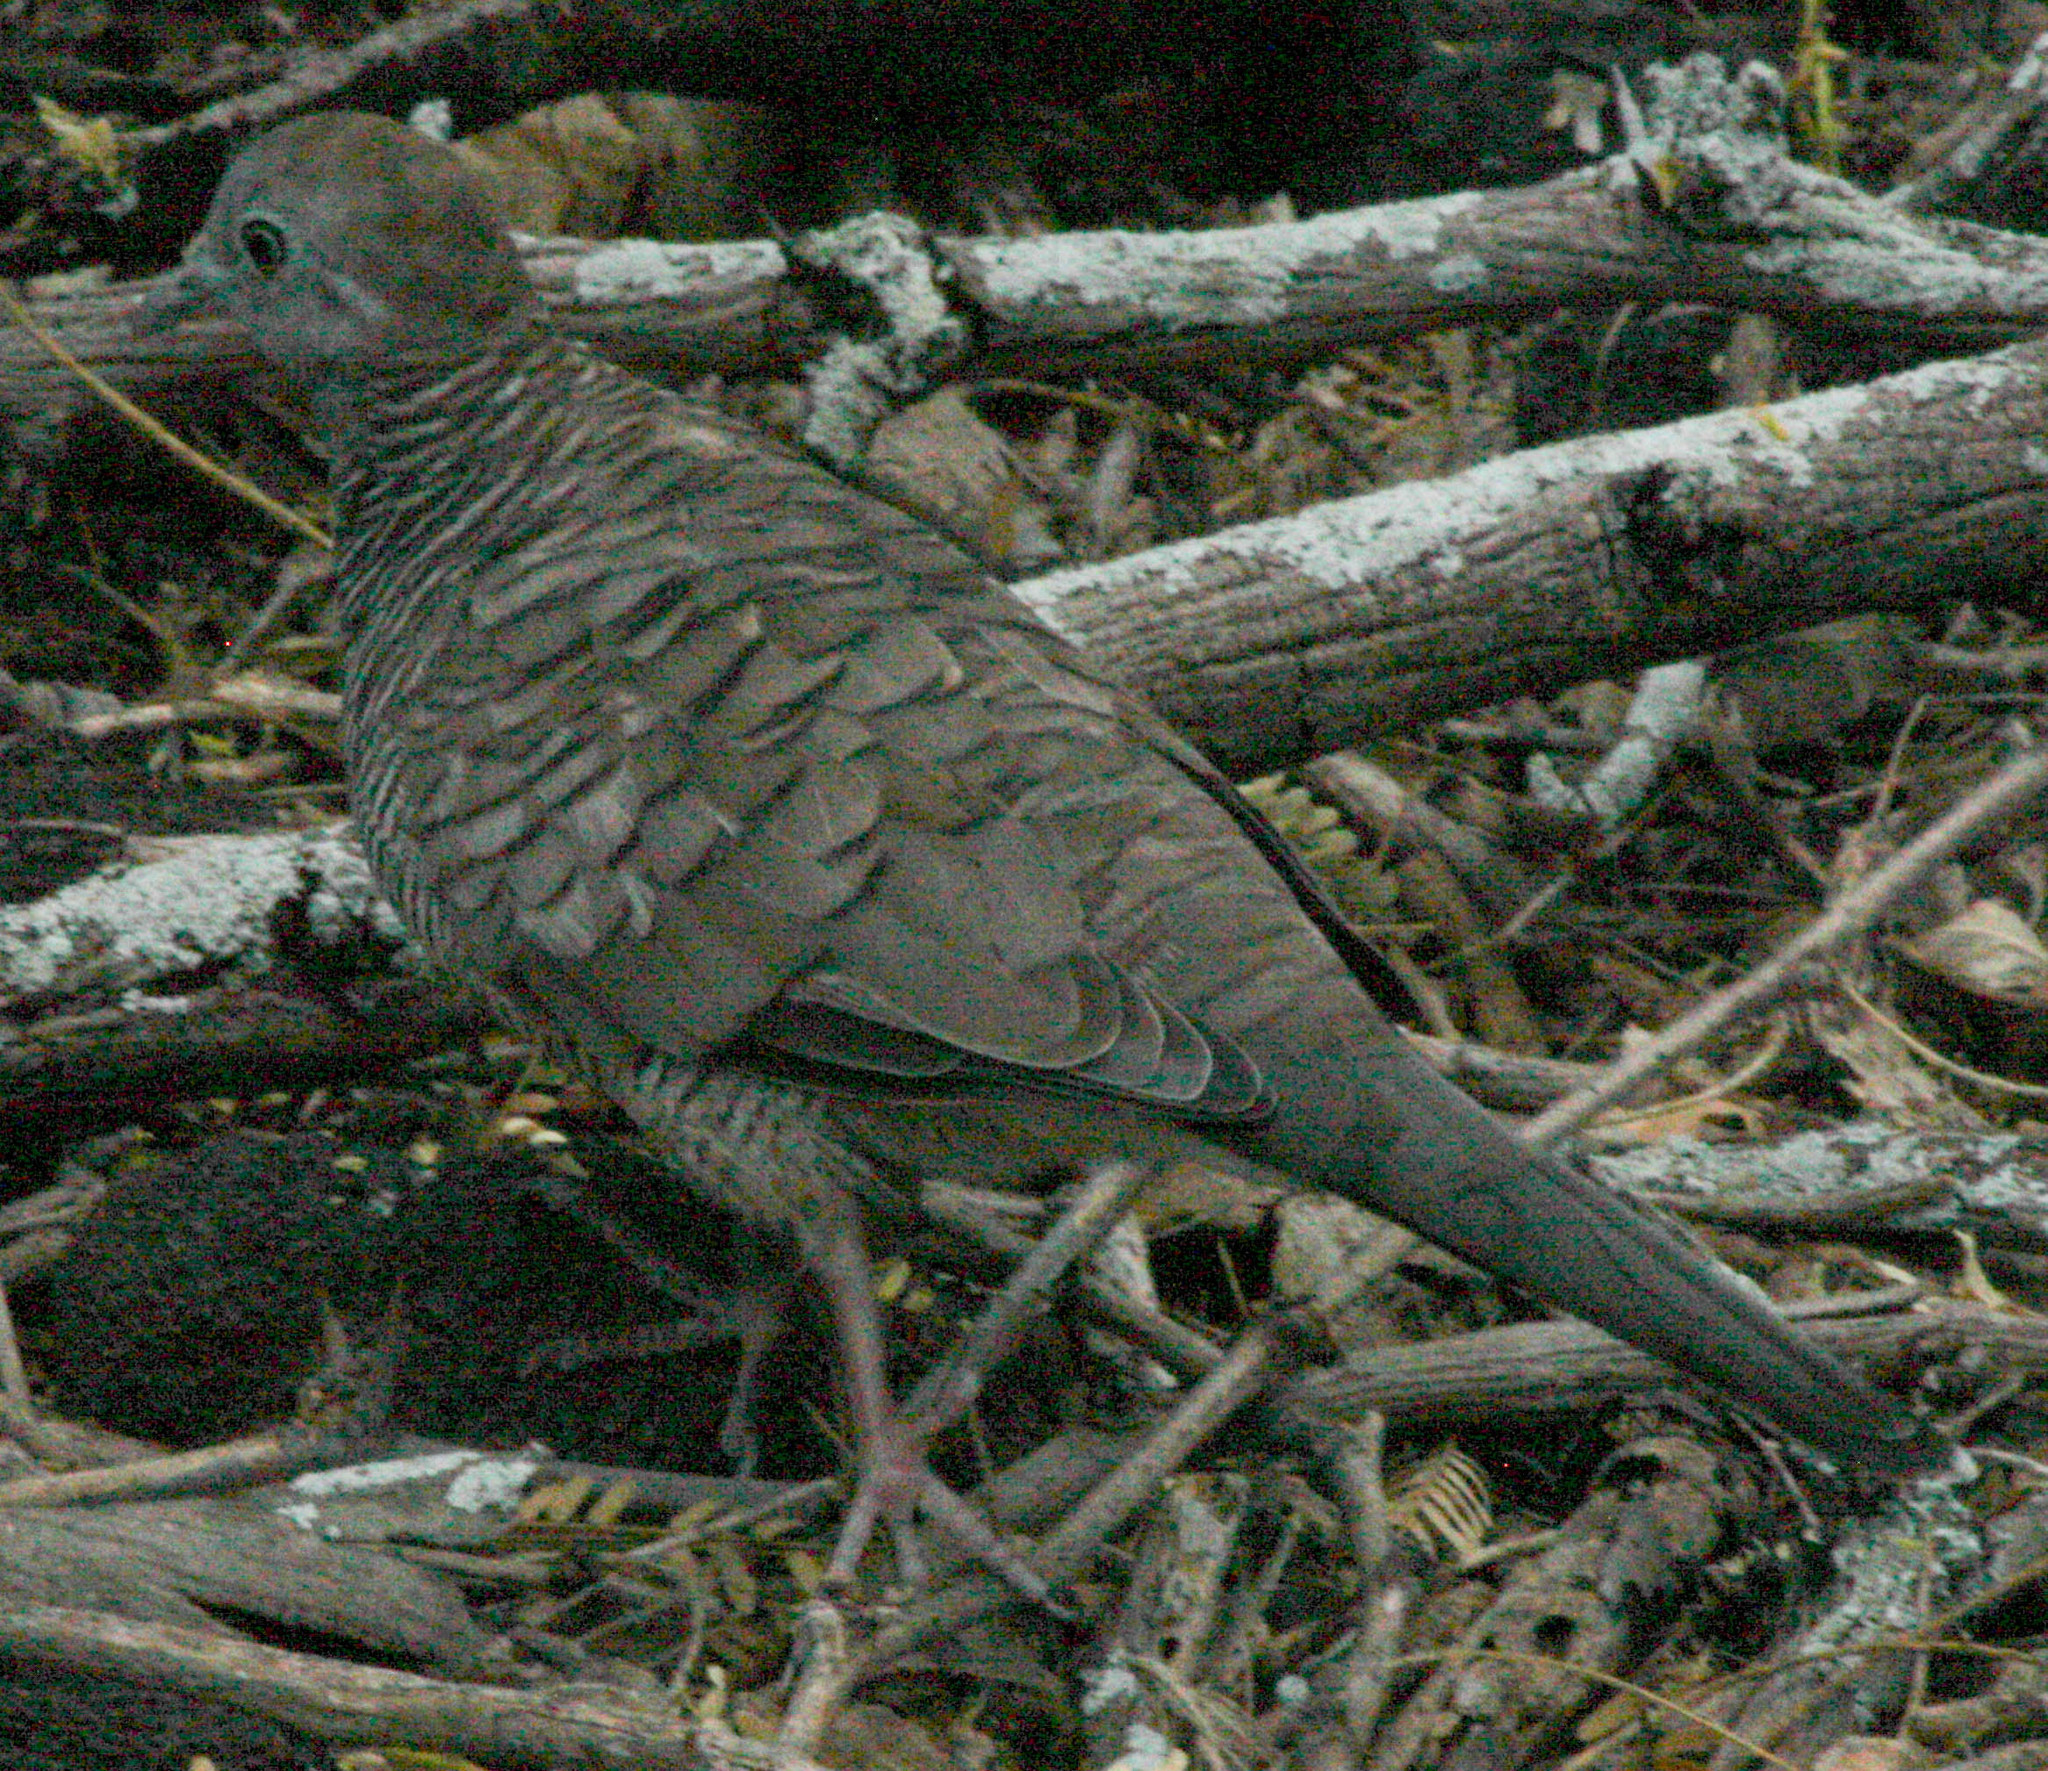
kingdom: Animalia
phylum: Chordata
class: Aves
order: Columbiformes
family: Columbidae
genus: Geopelia
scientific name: Geopelia striata
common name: Zebra dove
